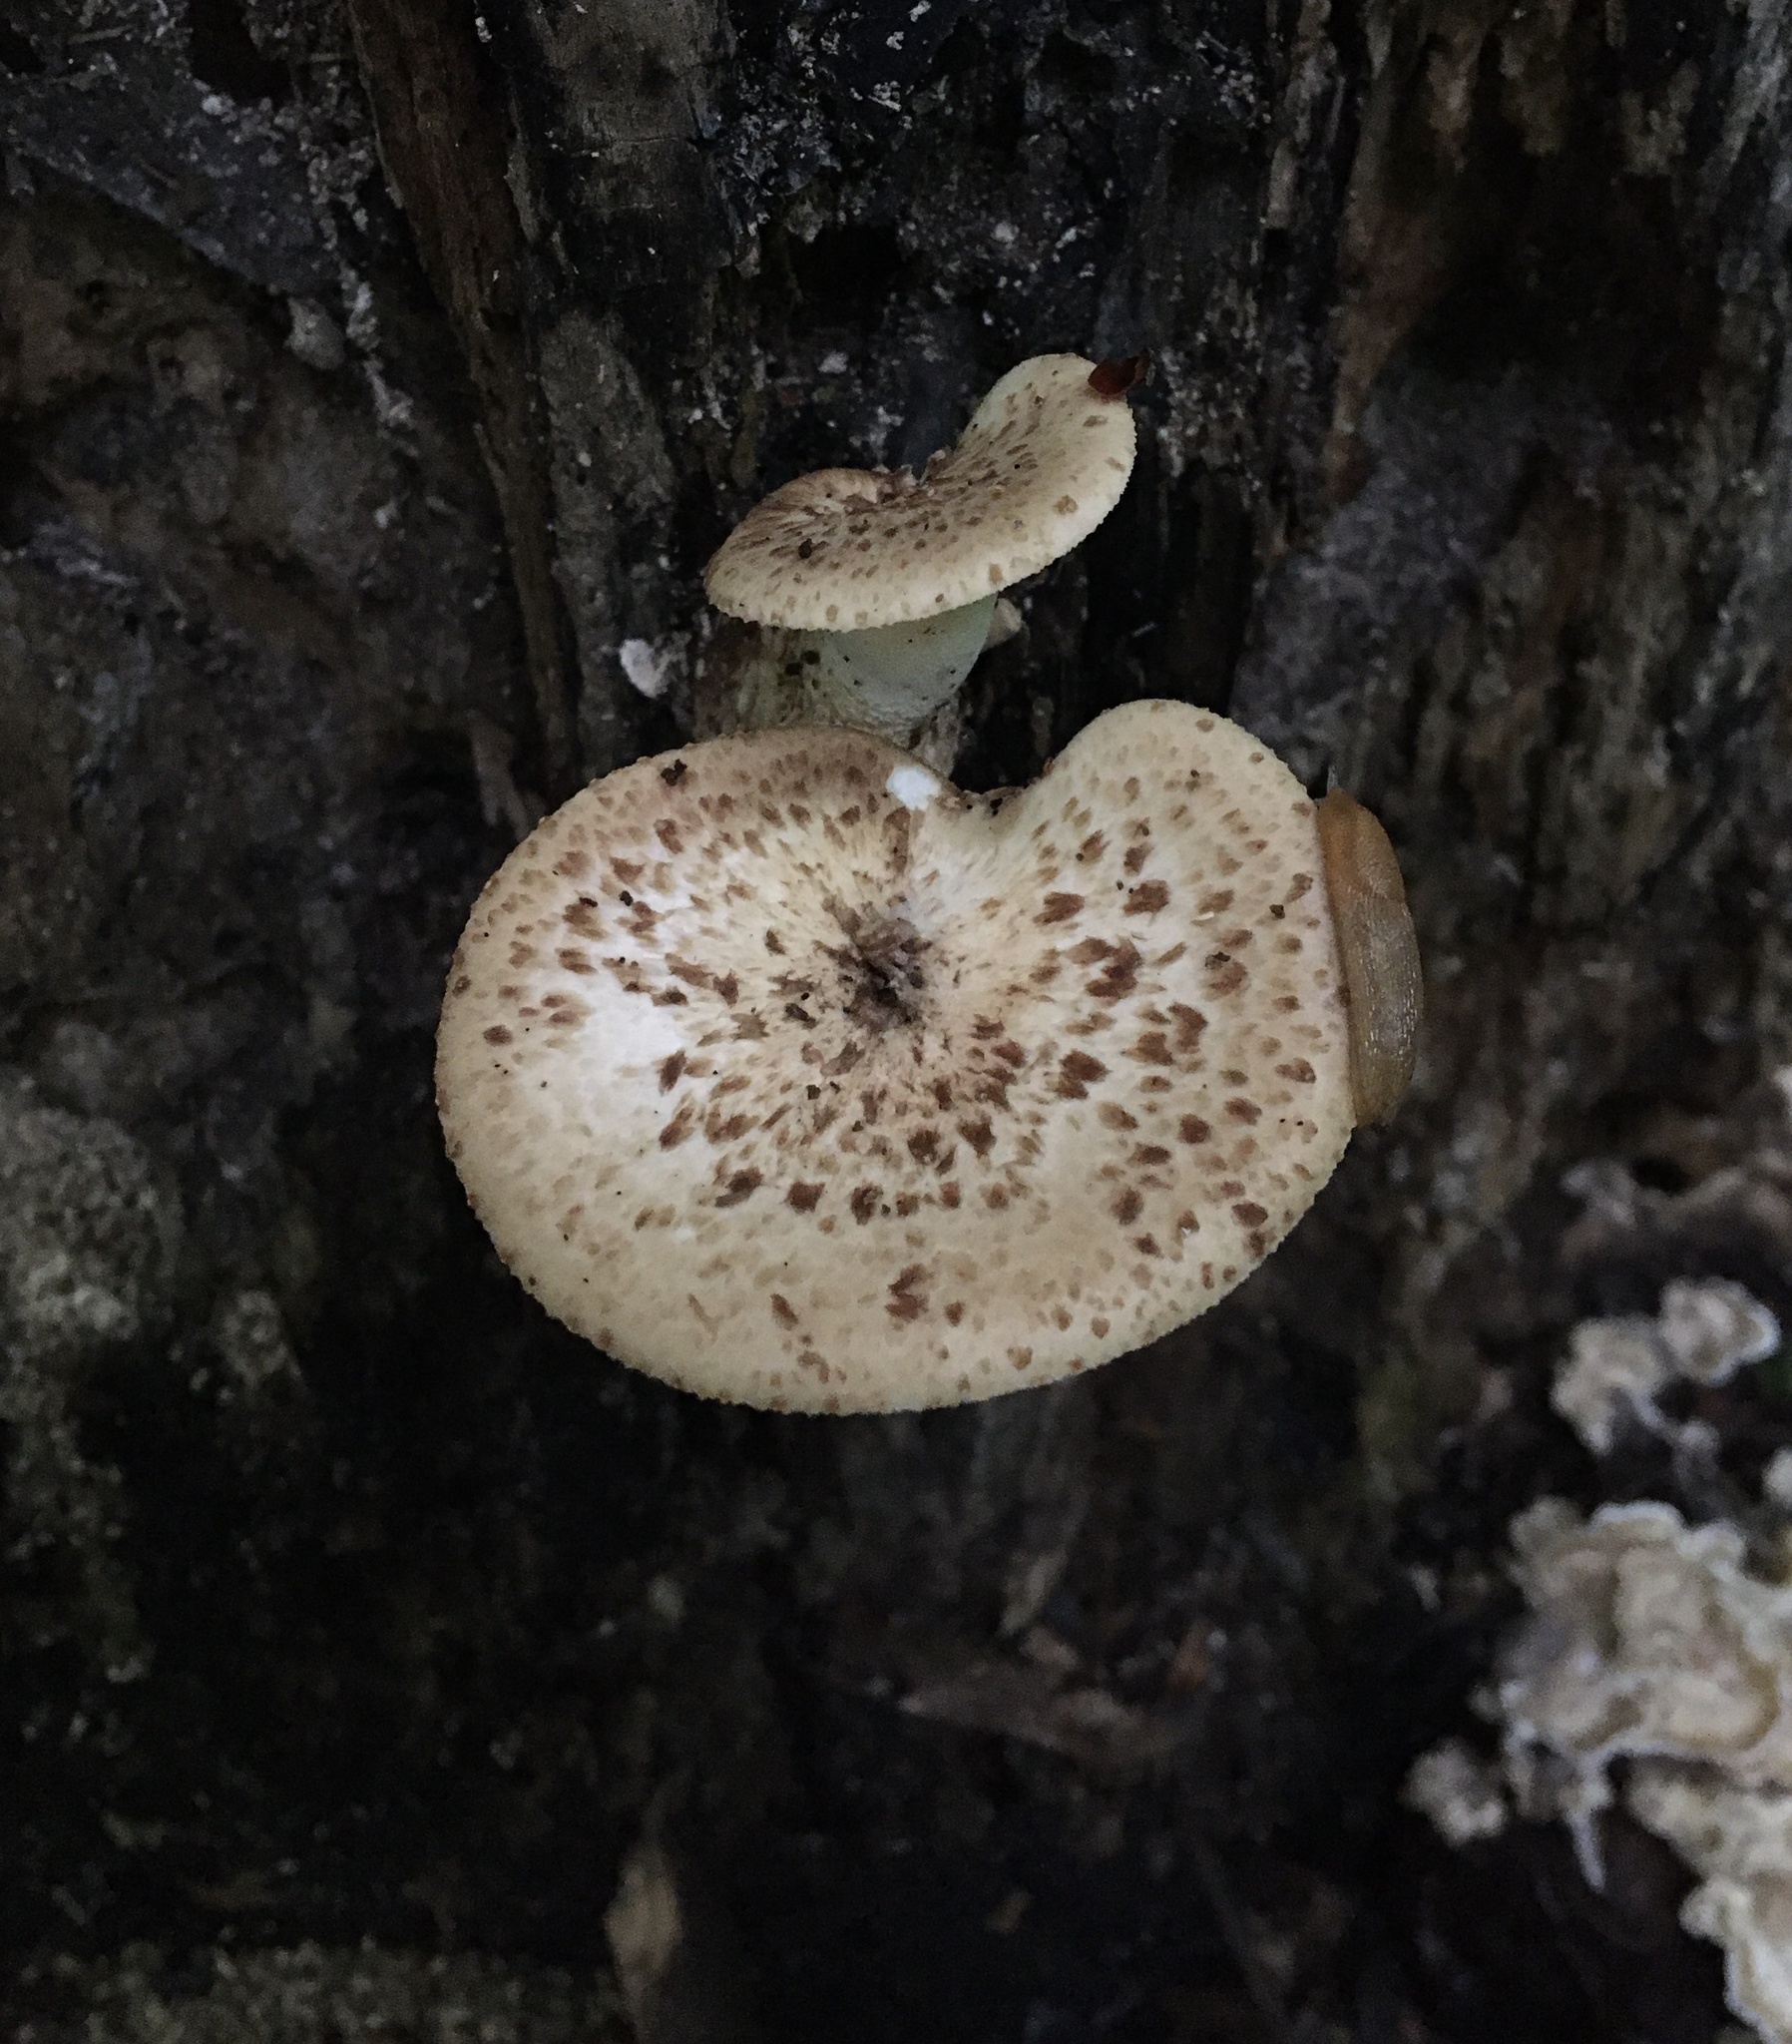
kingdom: Fungi
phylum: Basidiomycota
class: Agaricomycetes
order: Polyporales
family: Polyporaceae
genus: Cerioporus
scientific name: Cerioporus squamosus
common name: Dryad's saddle
